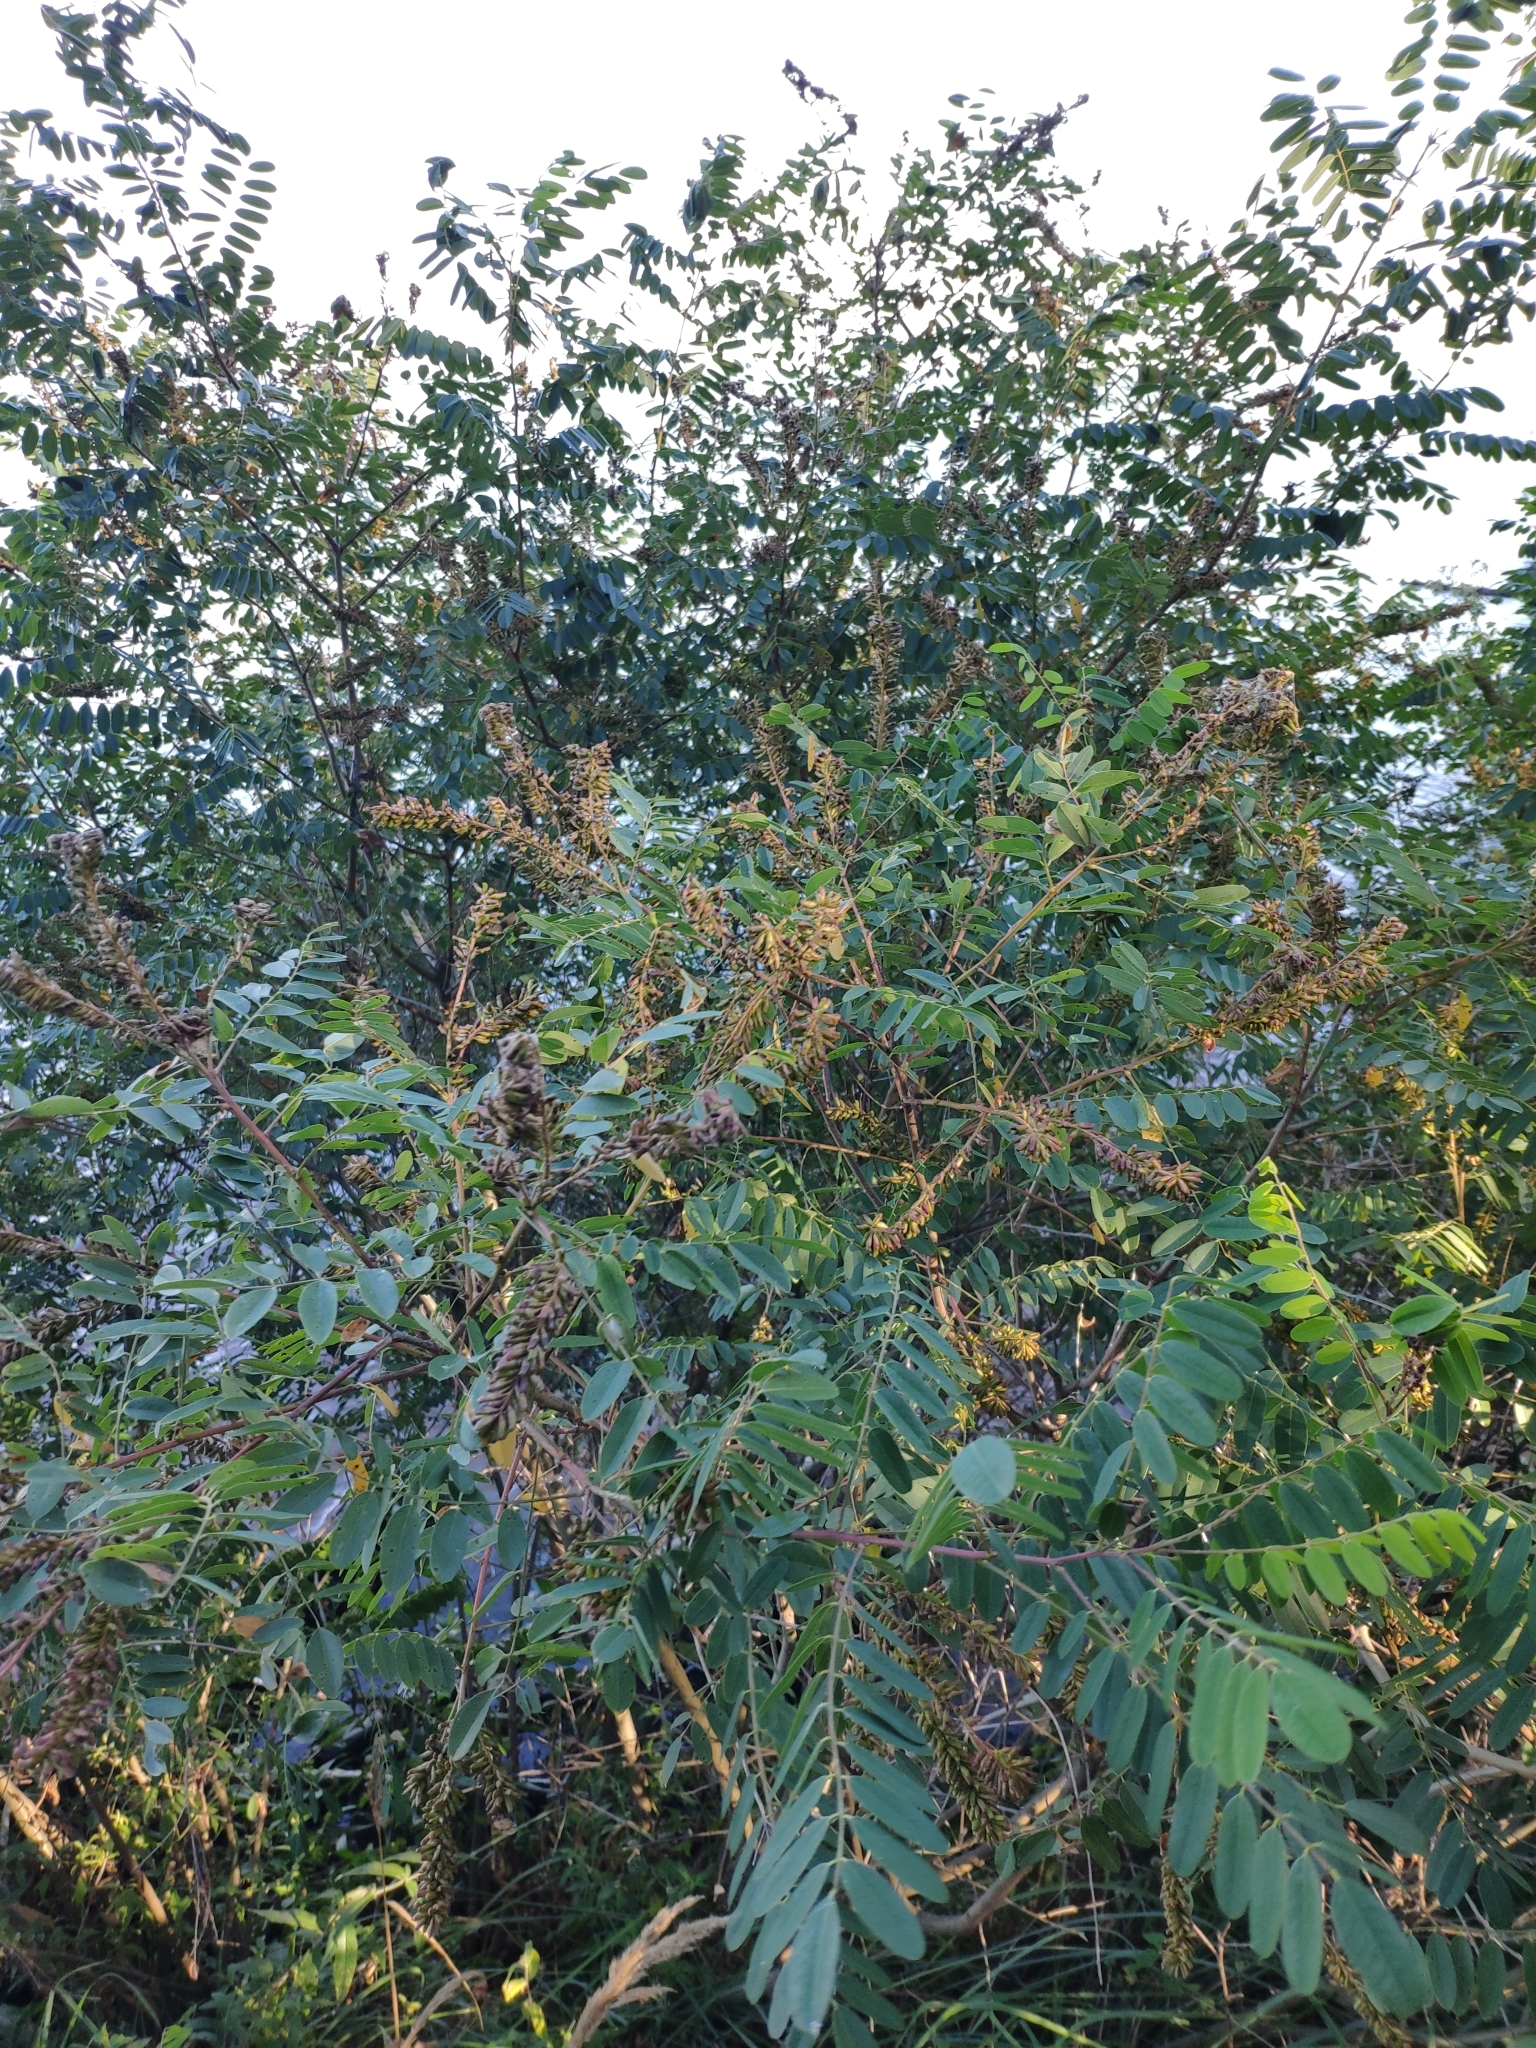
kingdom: Plantae
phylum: Tracheophyta
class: Magnoliopsida
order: Fabales
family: Fabaceae
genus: Amorpha
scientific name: Amorpha fruticosa
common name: False indigo
